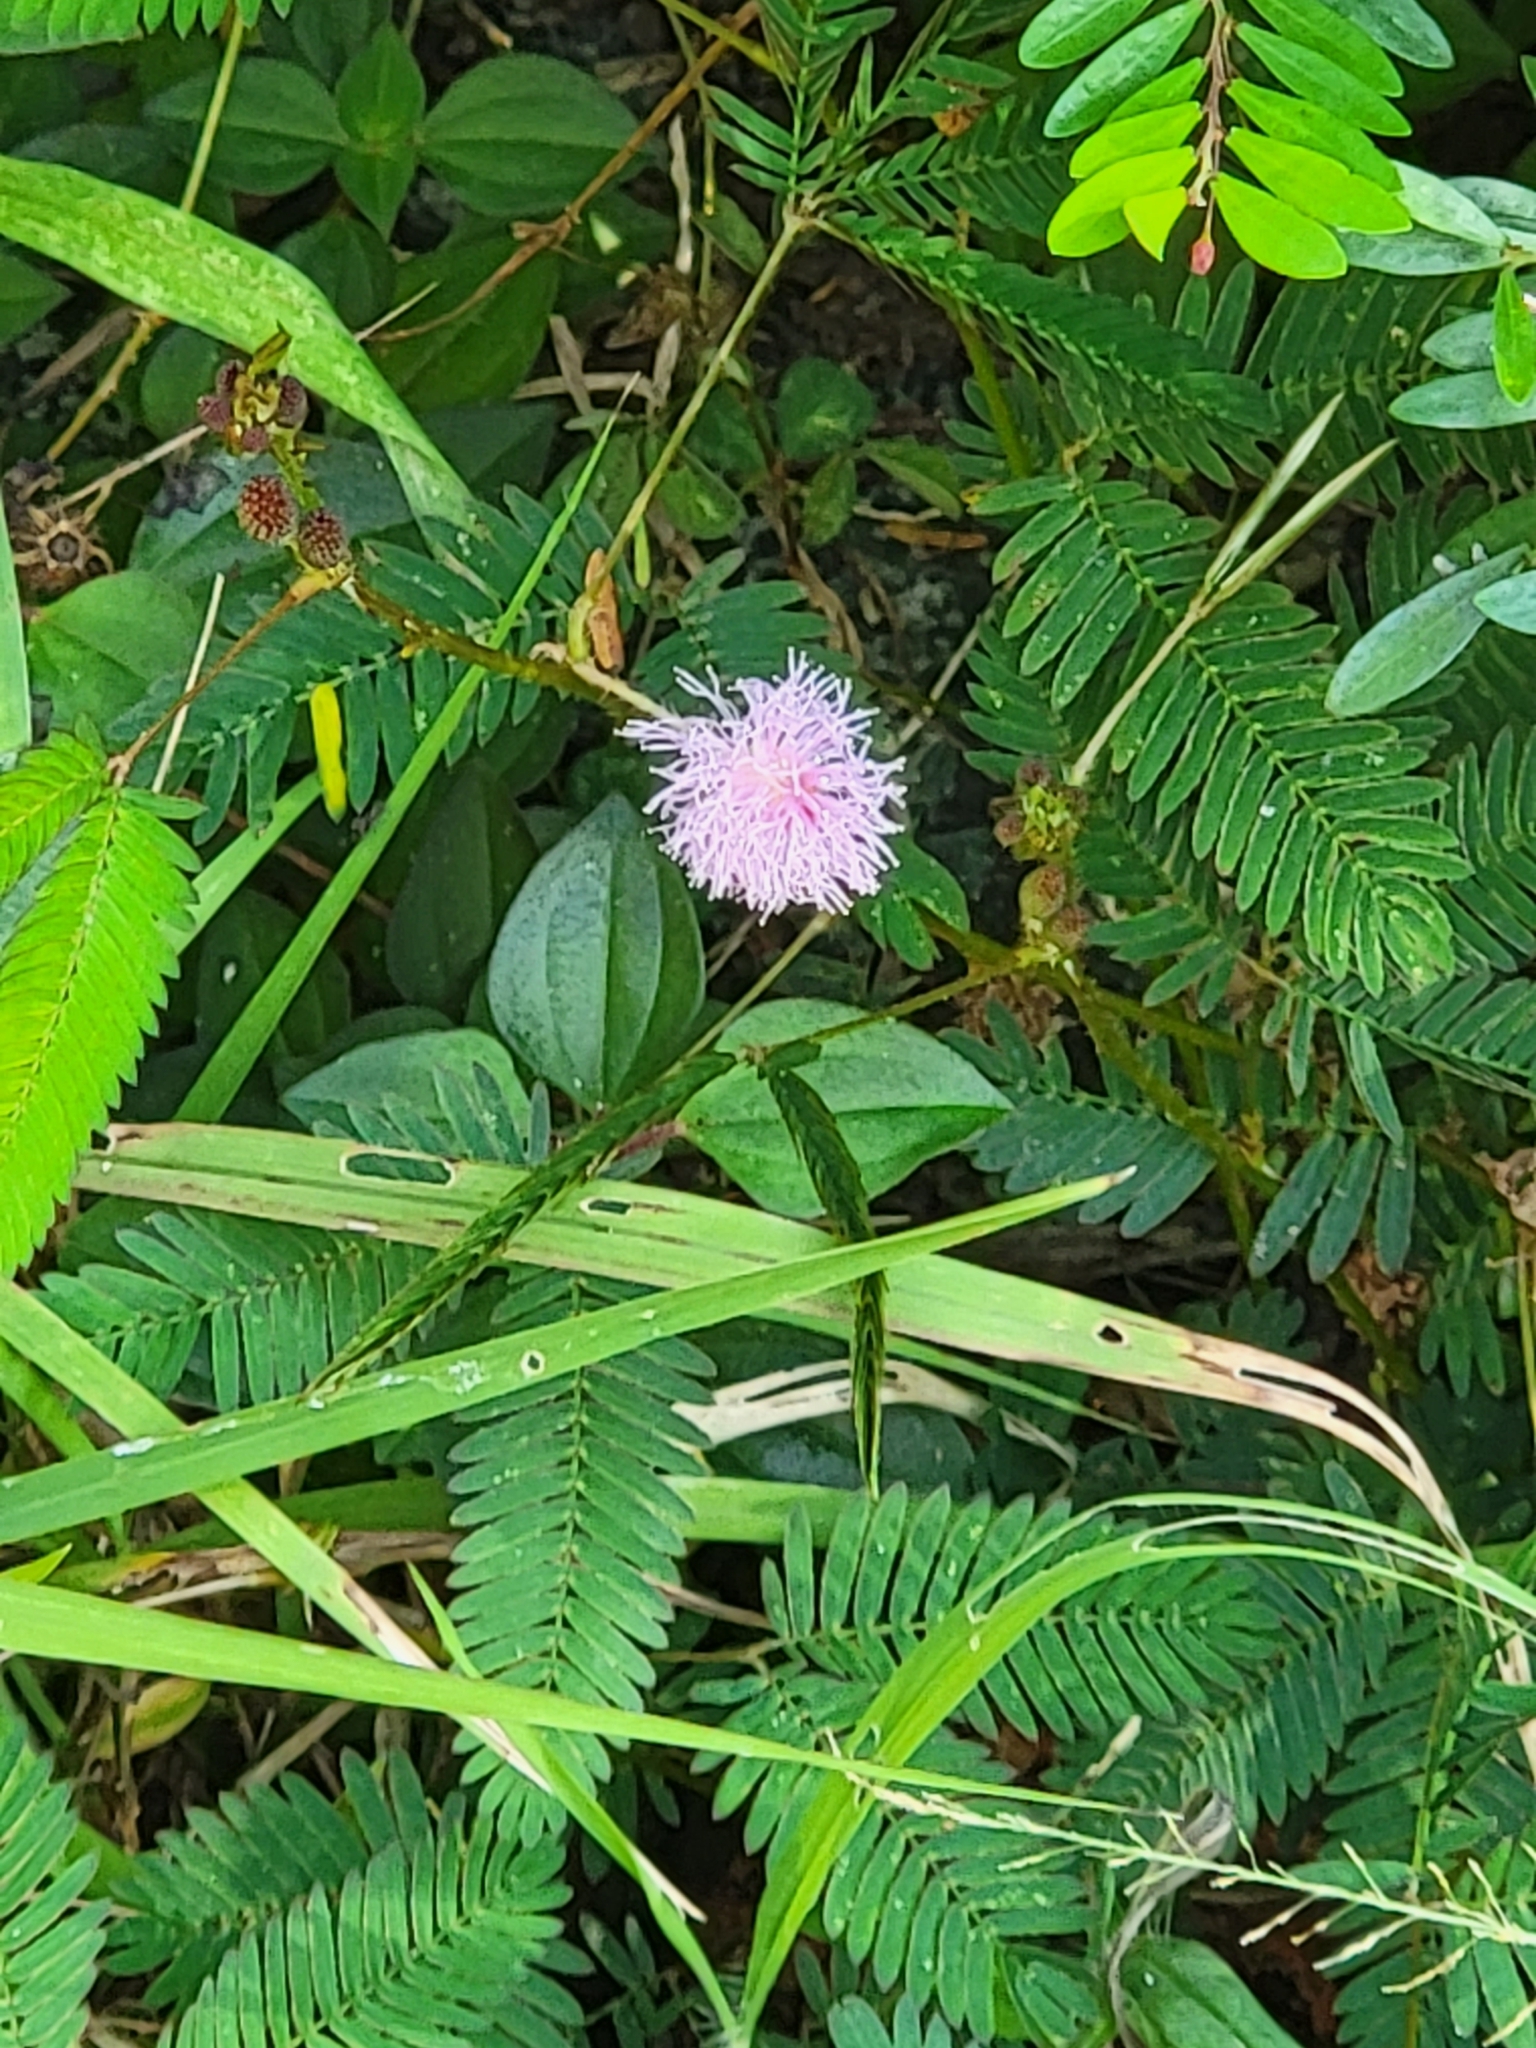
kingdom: Plantae
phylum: Tracheophyta
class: Magnoliopsida
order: Fabales
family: Fabaceae
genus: Mimosa
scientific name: Mimosa pudica
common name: Sensitive plant
